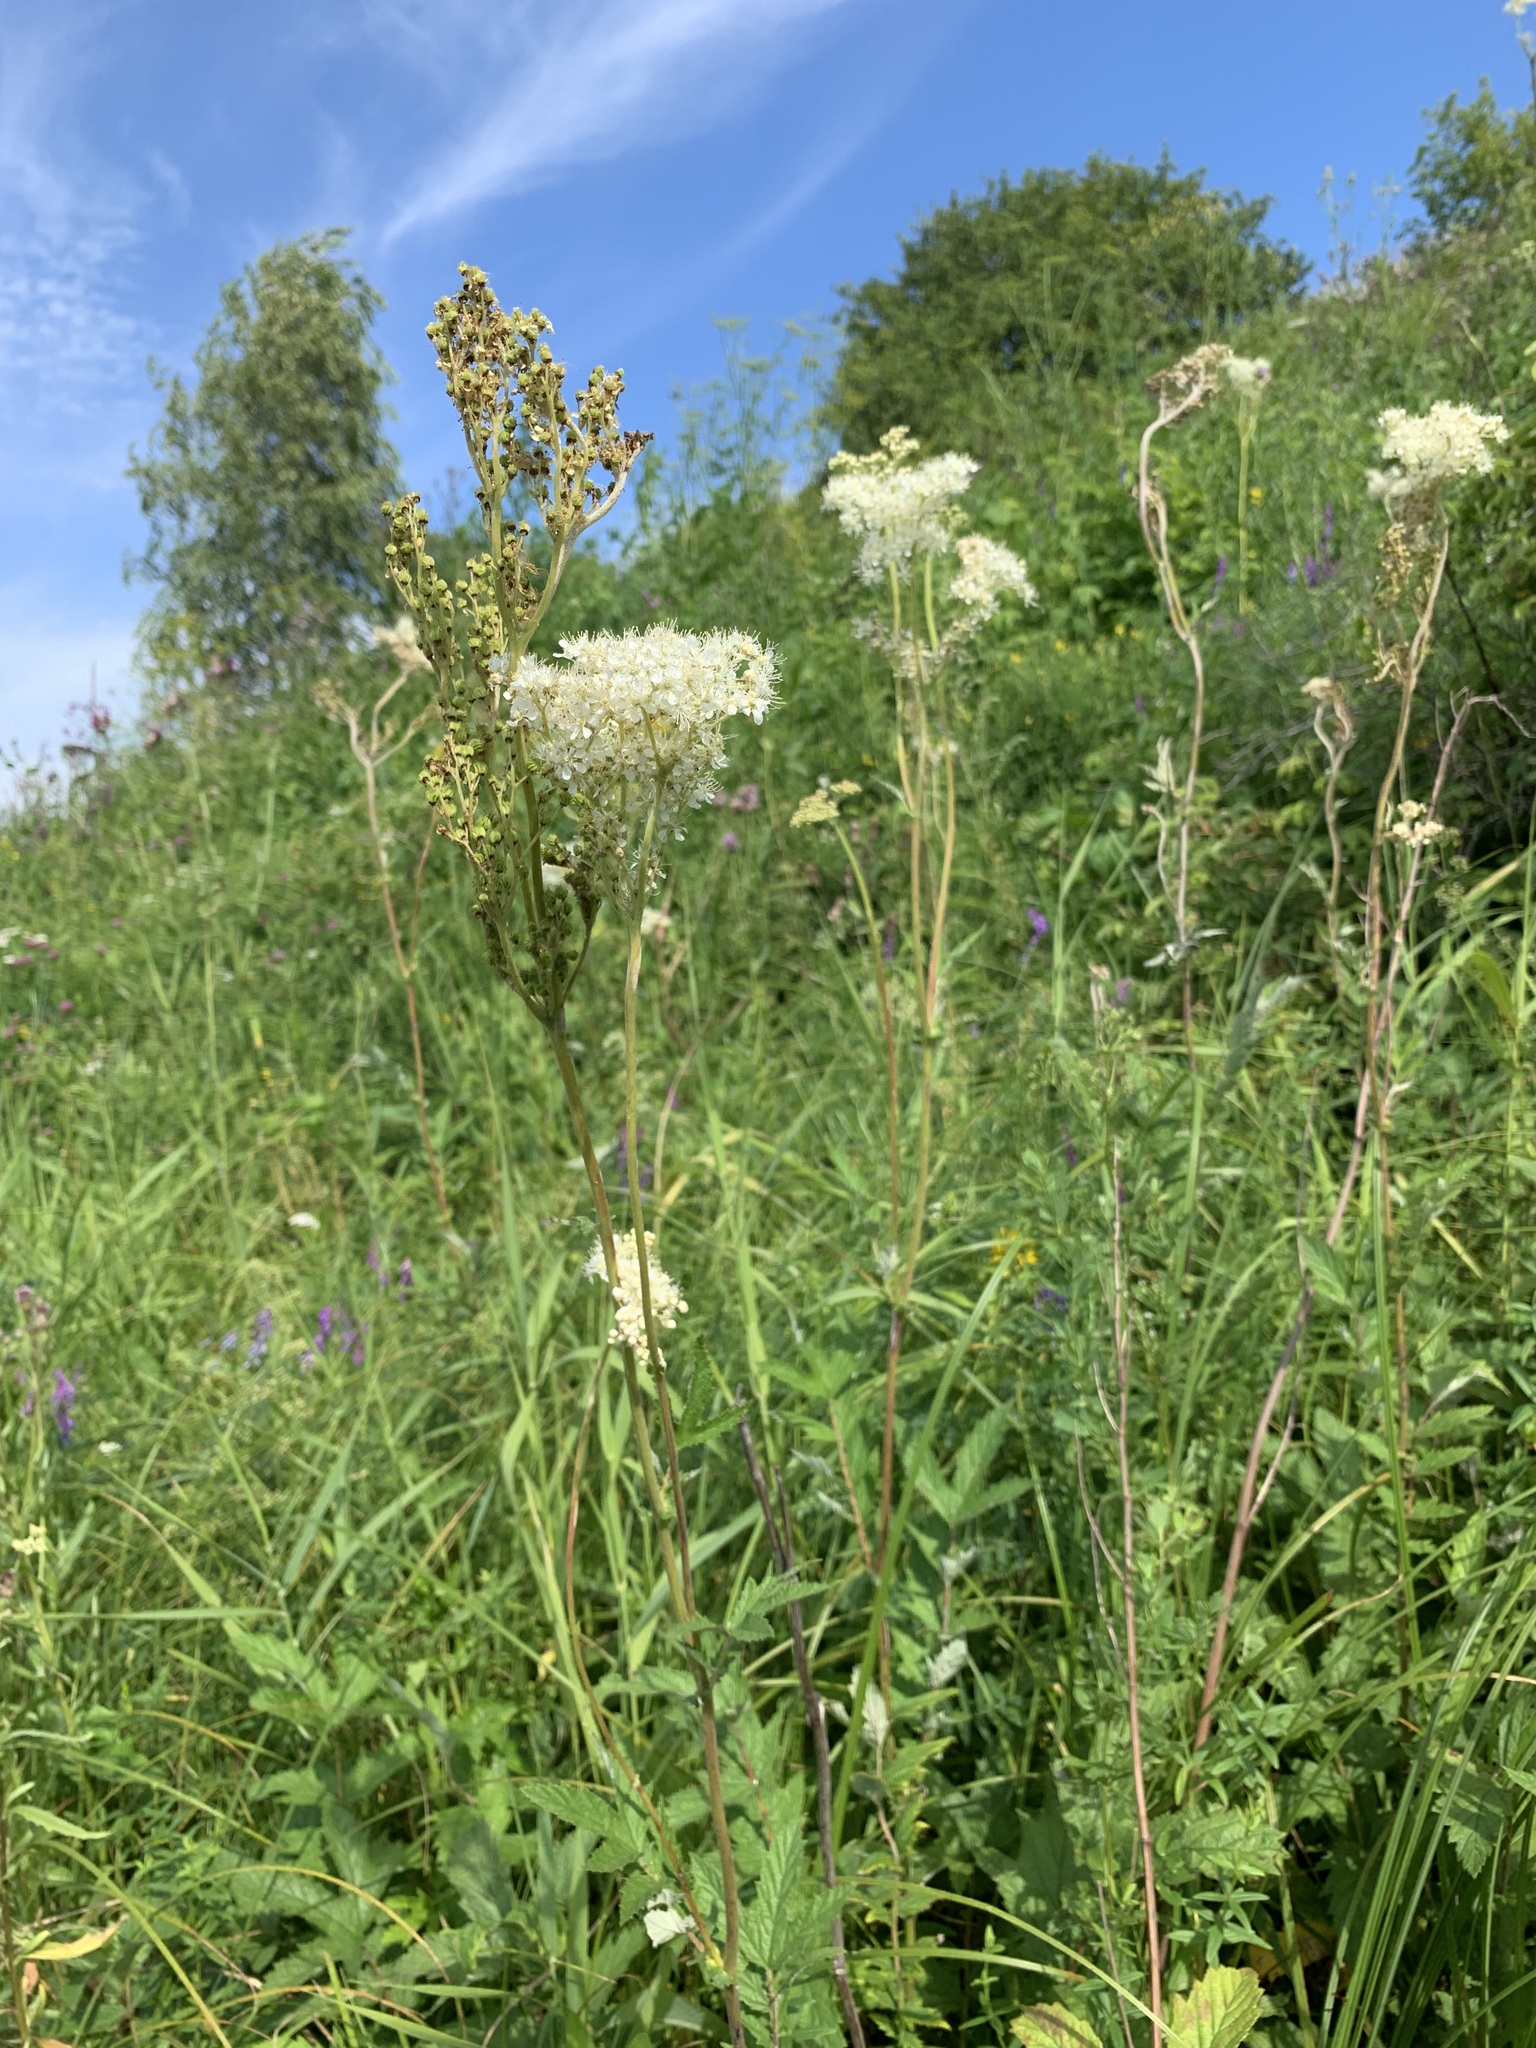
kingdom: Plantae
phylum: Tracheophyta
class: Magnoliopsida
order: Rosales
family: Rosaceae
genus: Filipendula
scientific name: Filipendula ulmaria
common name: Meadowsweet
